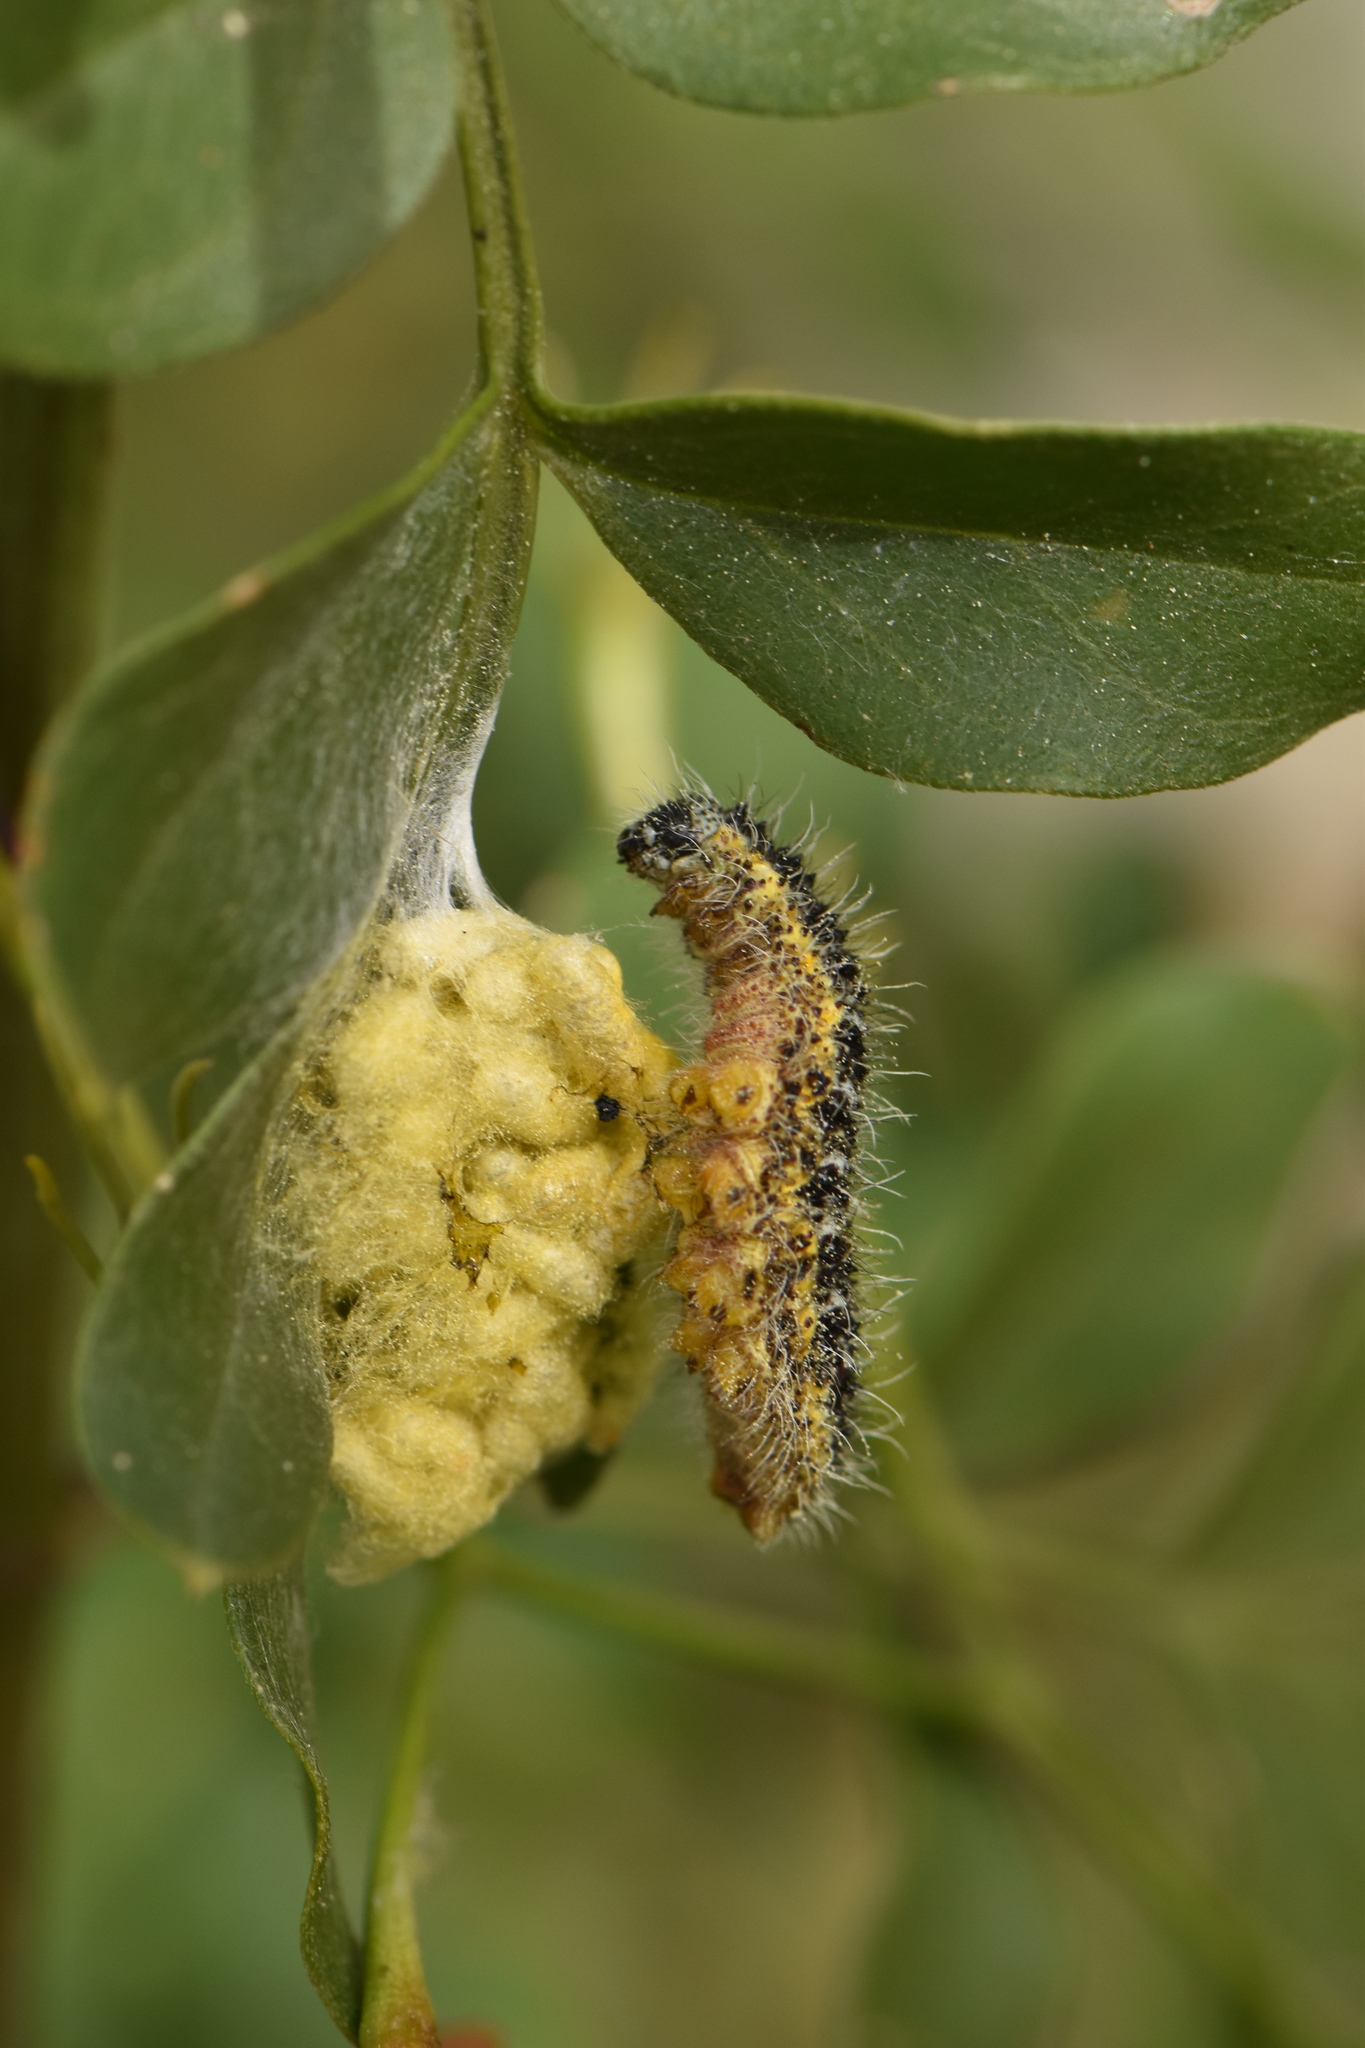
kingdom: Animalia
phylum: Arthropoda
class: Insecta
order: Lepidoptera
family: Pieridae
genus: Pieris
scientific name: Pieris brassicae
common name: Large white
